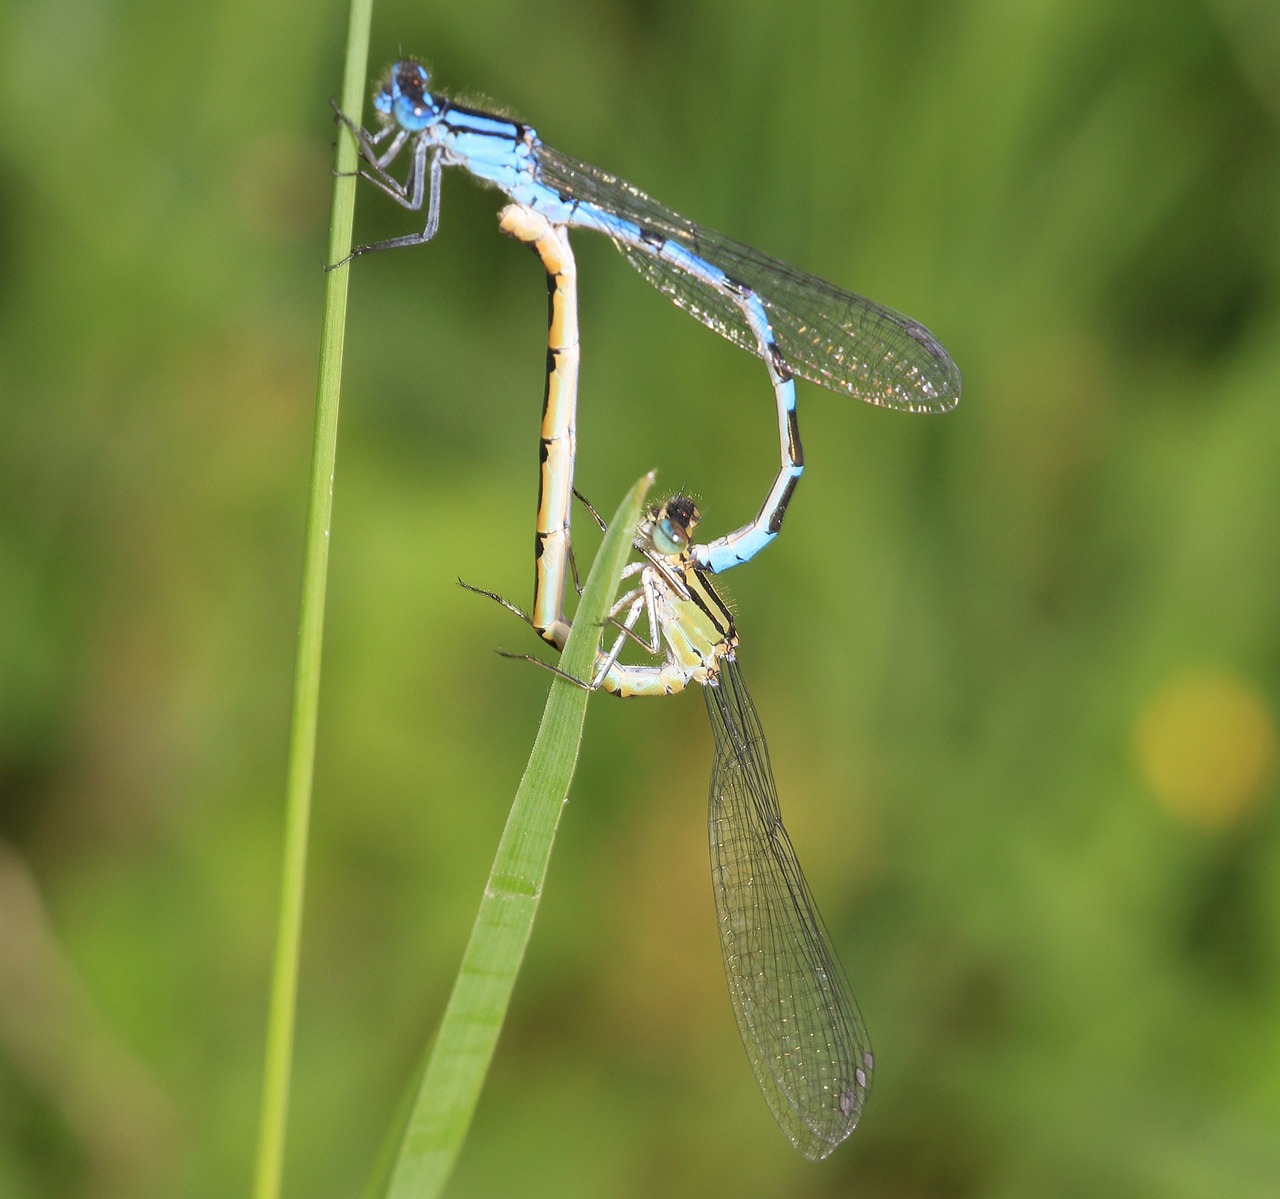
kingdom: Animalia
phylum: Arthropoda
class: Insecta
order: Odonata
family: Coenagrionidae
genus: Enallagma
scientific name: Enallagma cyathigerum
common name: Common blue damselfly
